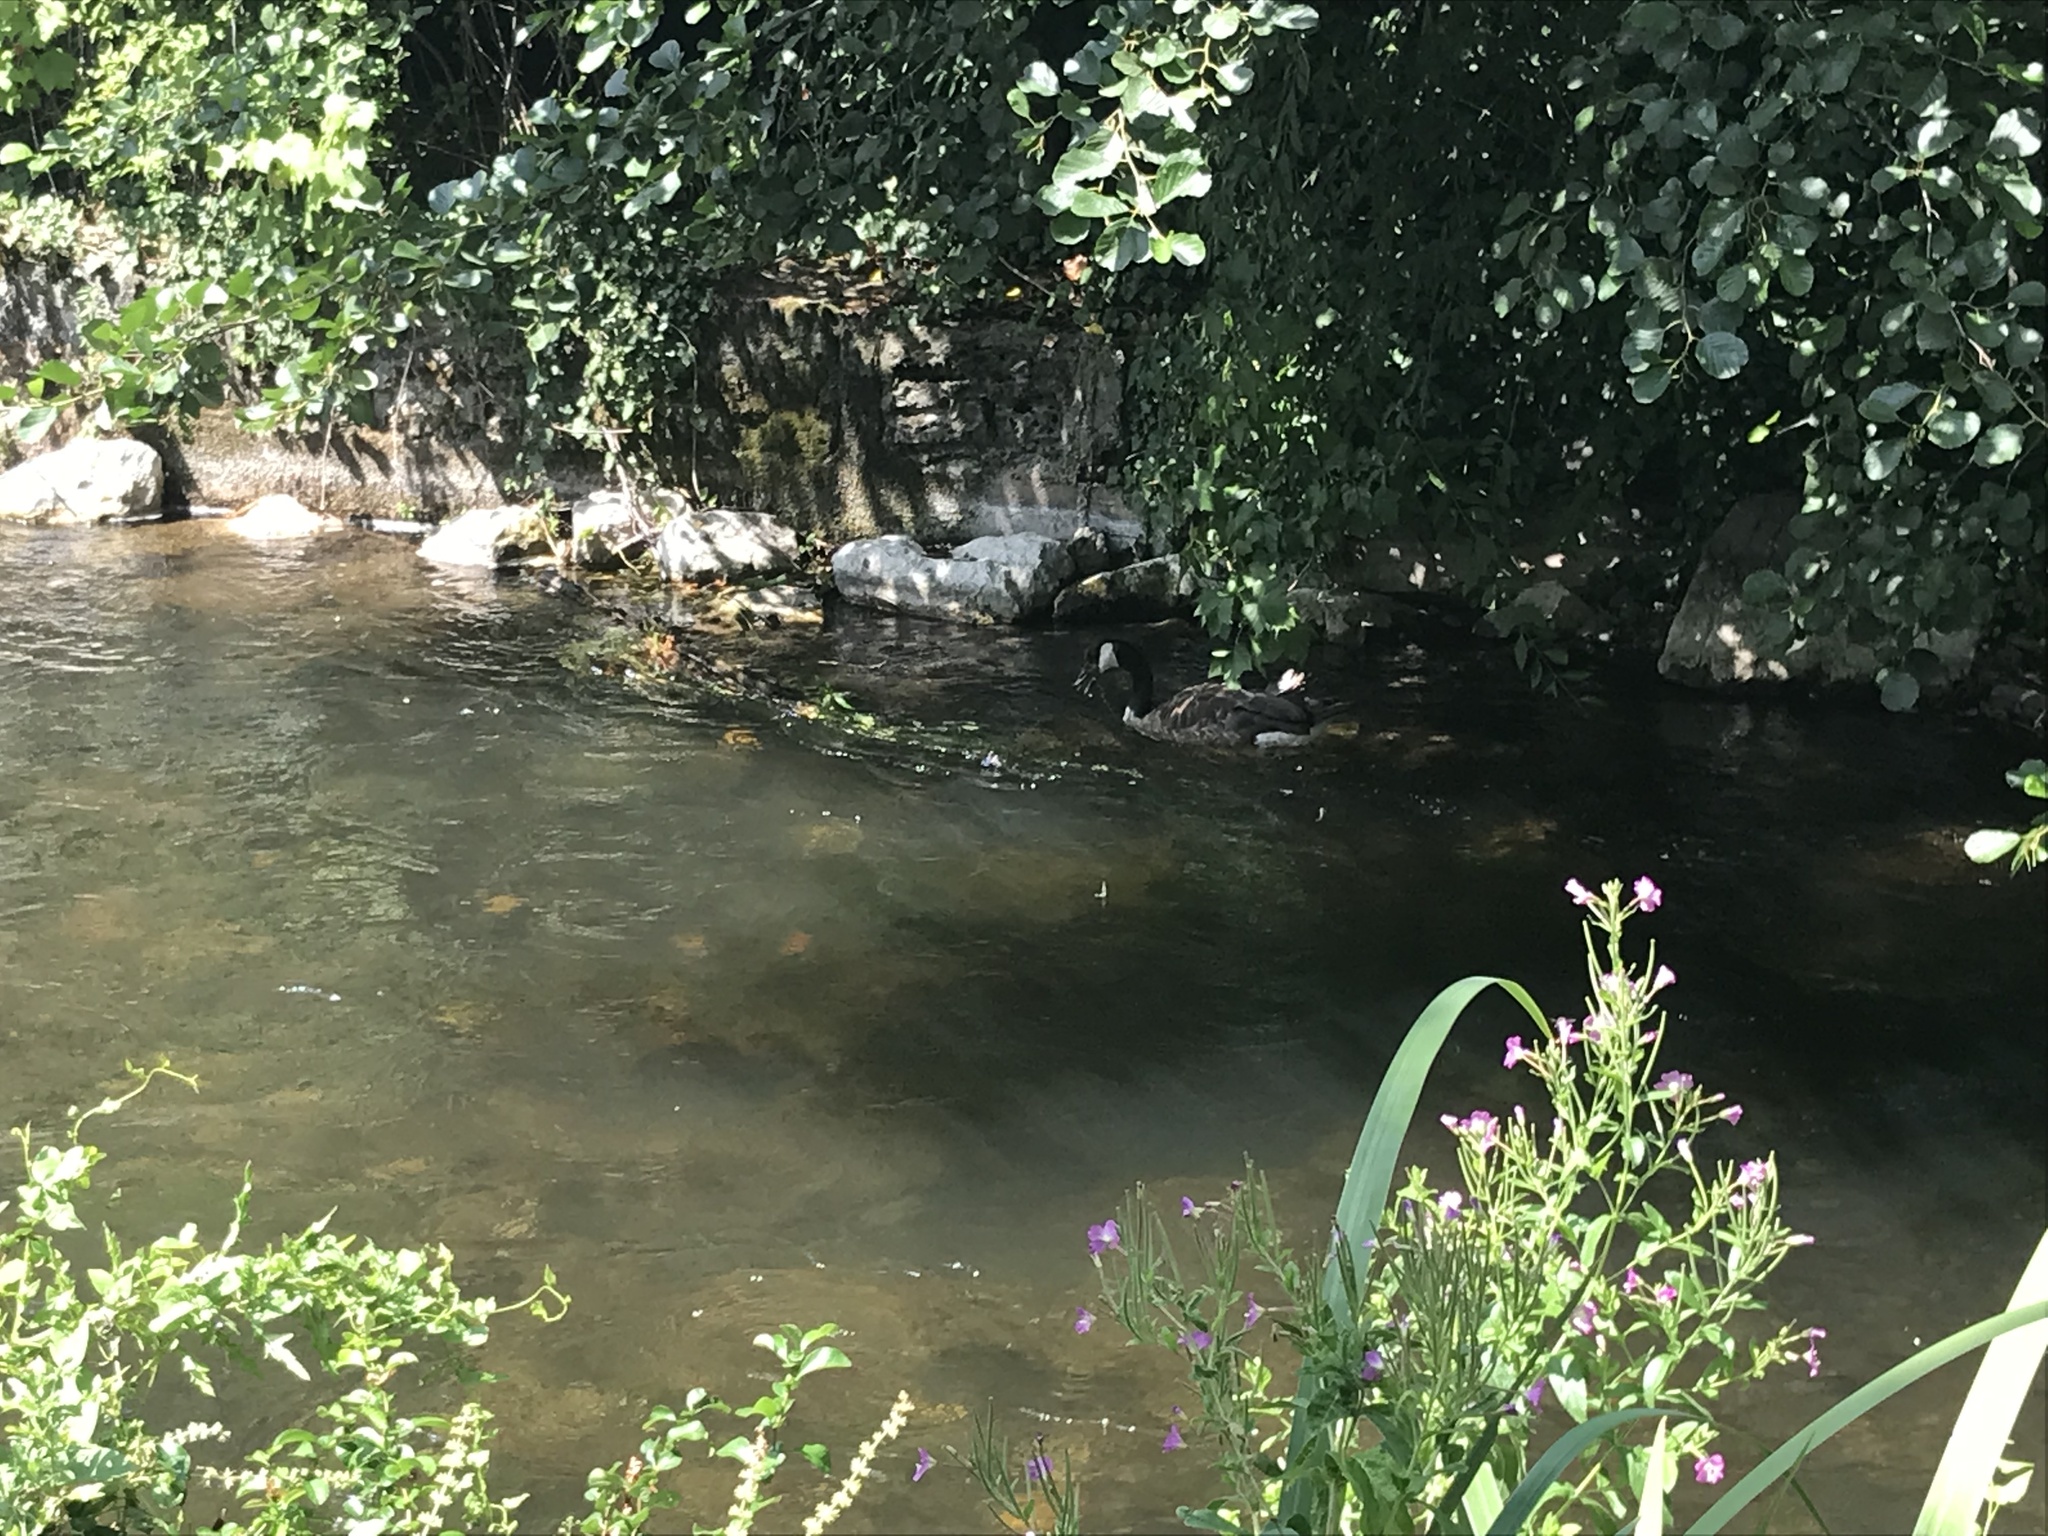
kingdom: Animalia
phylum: Chordata
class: Aves
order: Anseriformes
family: Anatidae
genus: Branta
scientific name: Branta canadensis
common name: Canada goose
